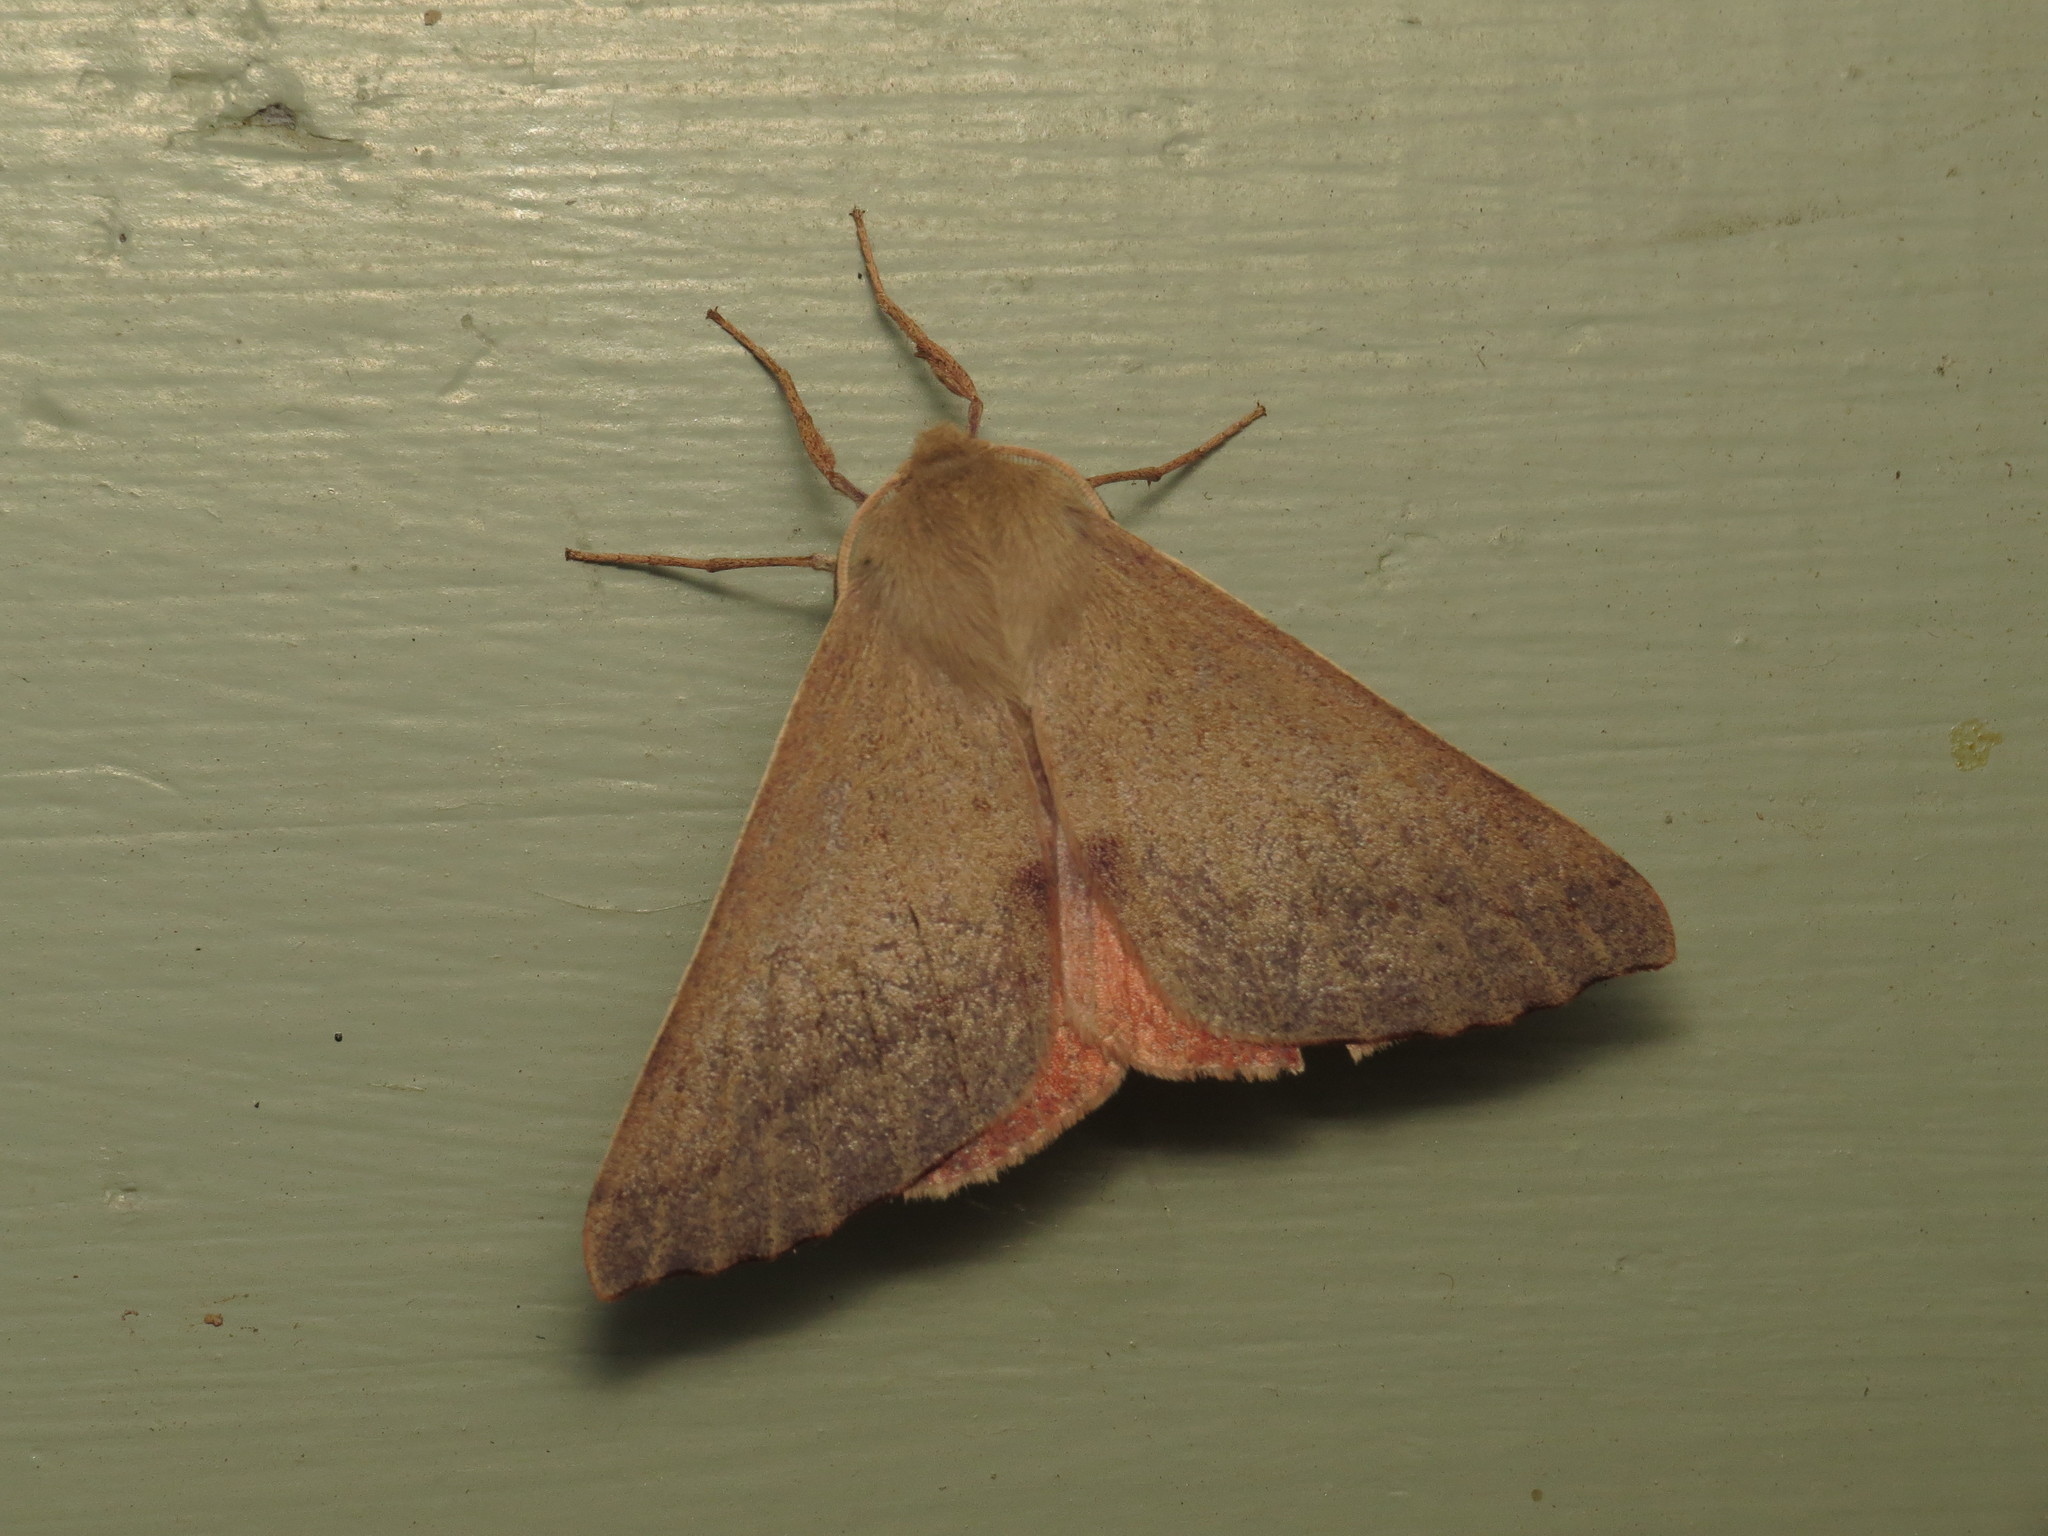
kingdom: Animalia
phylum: Arthropoda
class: Insecta
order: Lepidoptera
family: Geometridae
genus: Arhodia
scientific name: Arhodia lasiocamparia
